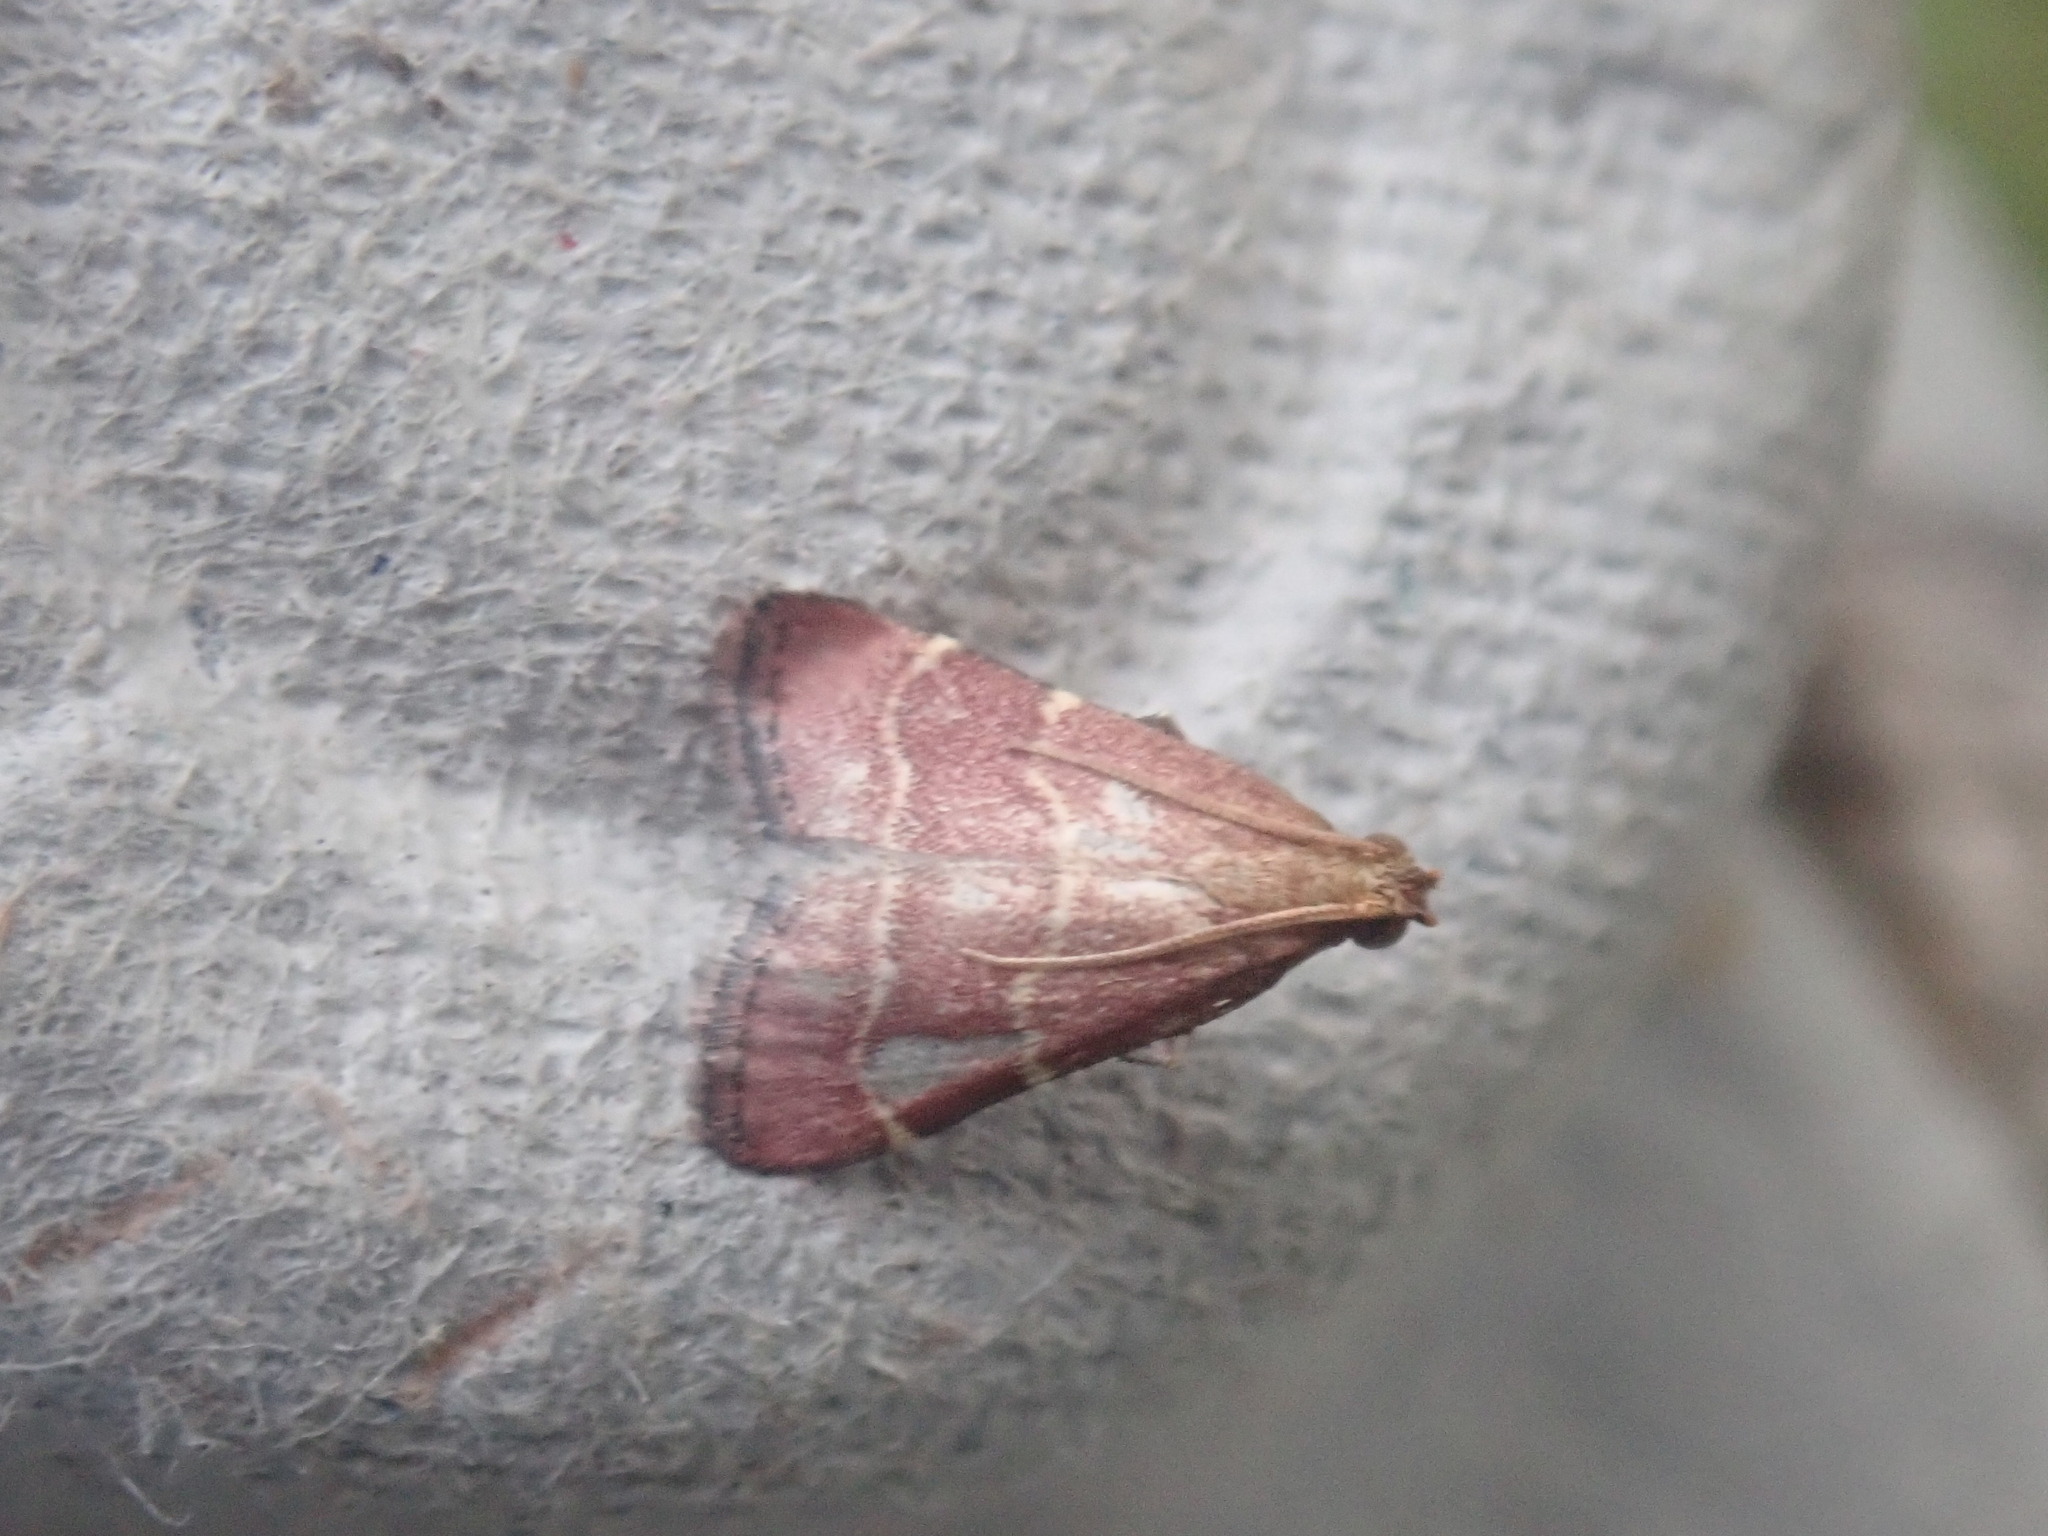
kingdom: Animalia
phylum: Arthropoda
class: Insecta
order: Lepidoptera
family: Pyralidae
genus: Arta
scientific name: Arta statalis
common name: Posturing arta moth
